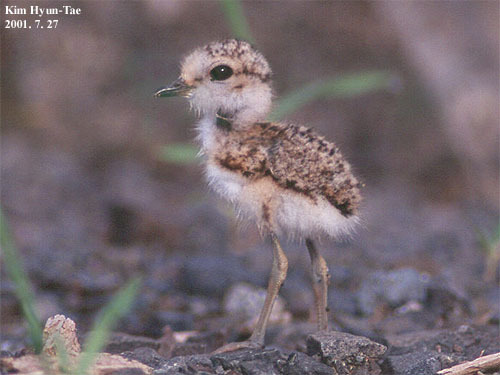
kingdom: Animalia
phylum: Chordata
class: Aves
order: Charadriiformes
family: Charadriidae
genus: Charadrius
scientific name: Charadrius alexandrinus
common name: Kentish plover
